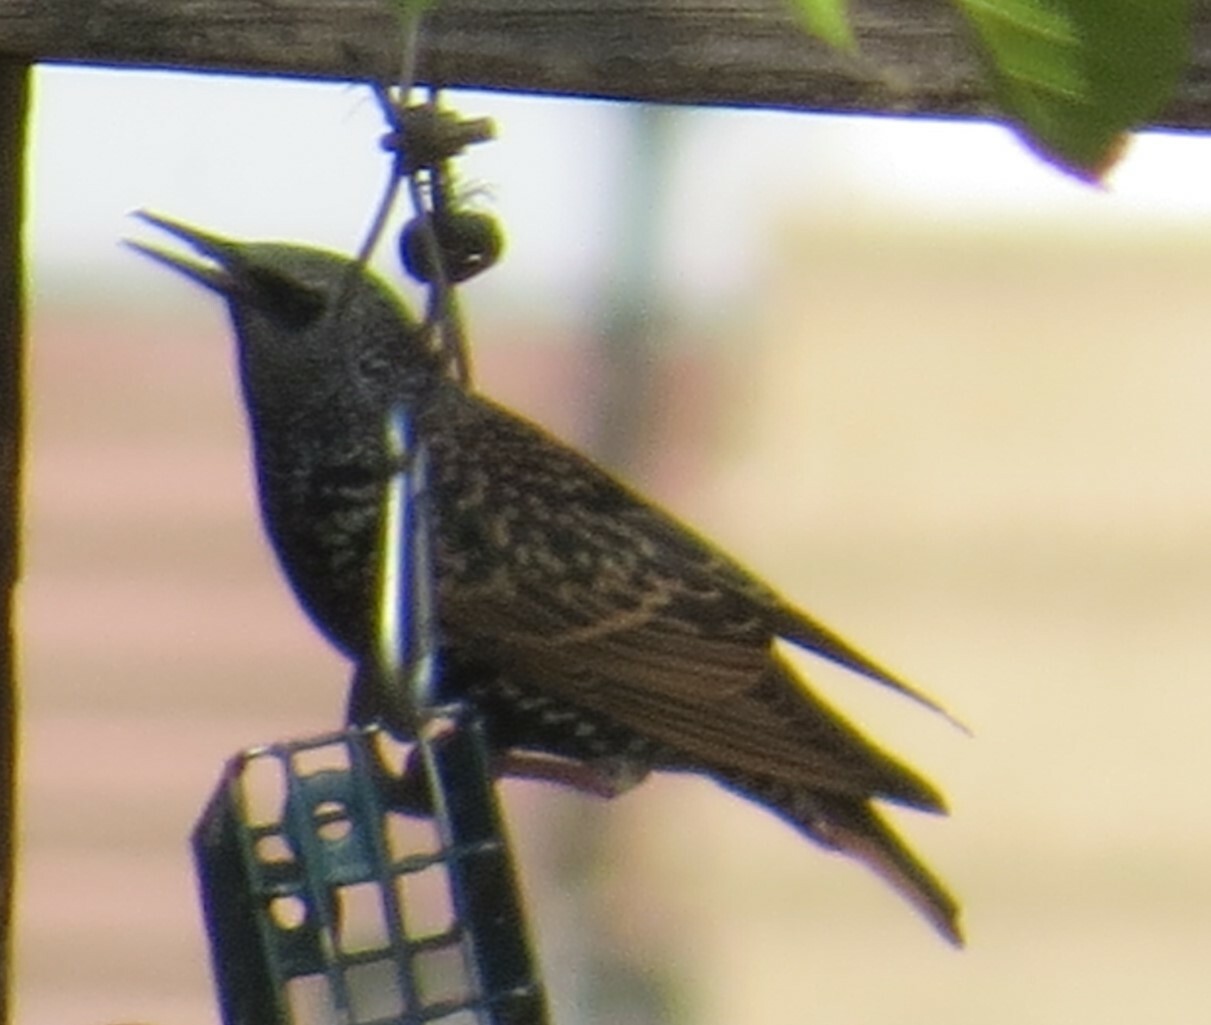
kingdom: Animalia
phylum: Chordata
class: Aves
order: Passeriformes
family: Sturnidae
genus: Sturnus
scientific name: Sturnus vulgaris
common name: Common starling
